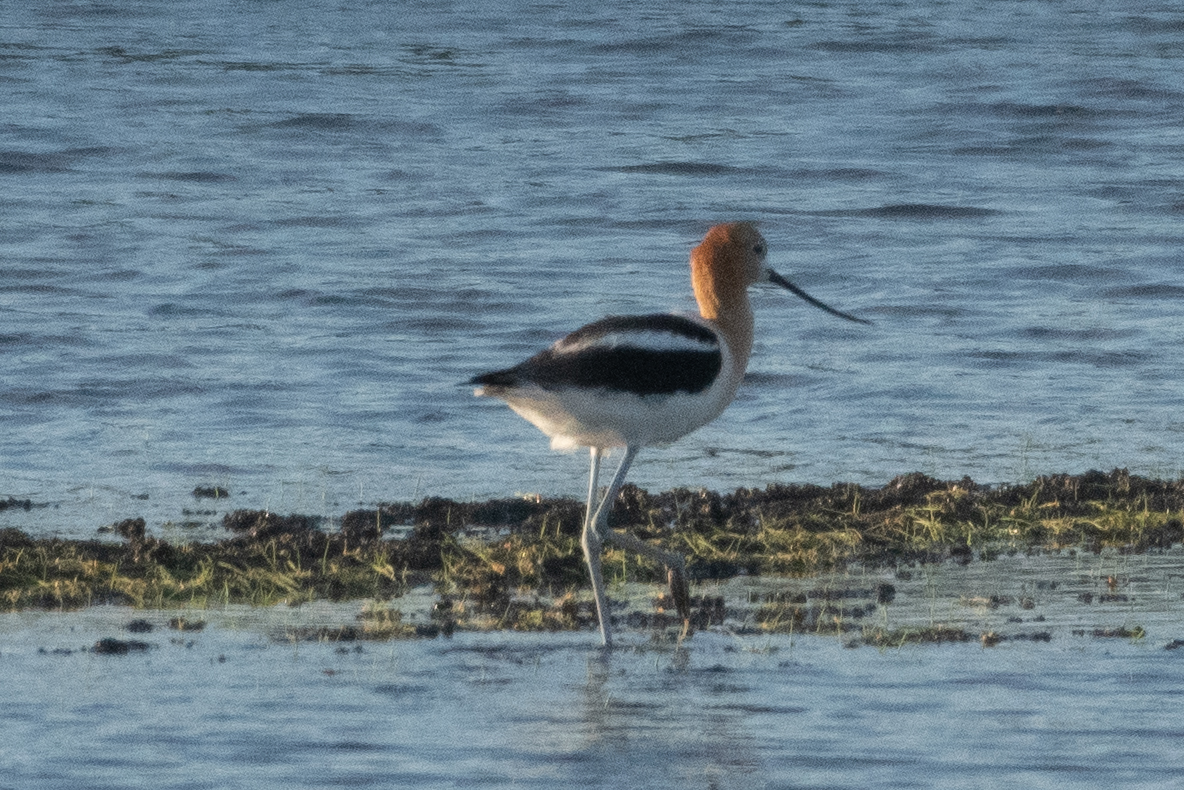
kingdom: Animalia
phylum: Chordata
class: Aves
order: Charadriiformes
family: Recurvirostridae
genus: Recurvirostra
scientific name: Recurvirostra americana
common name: American avocet
